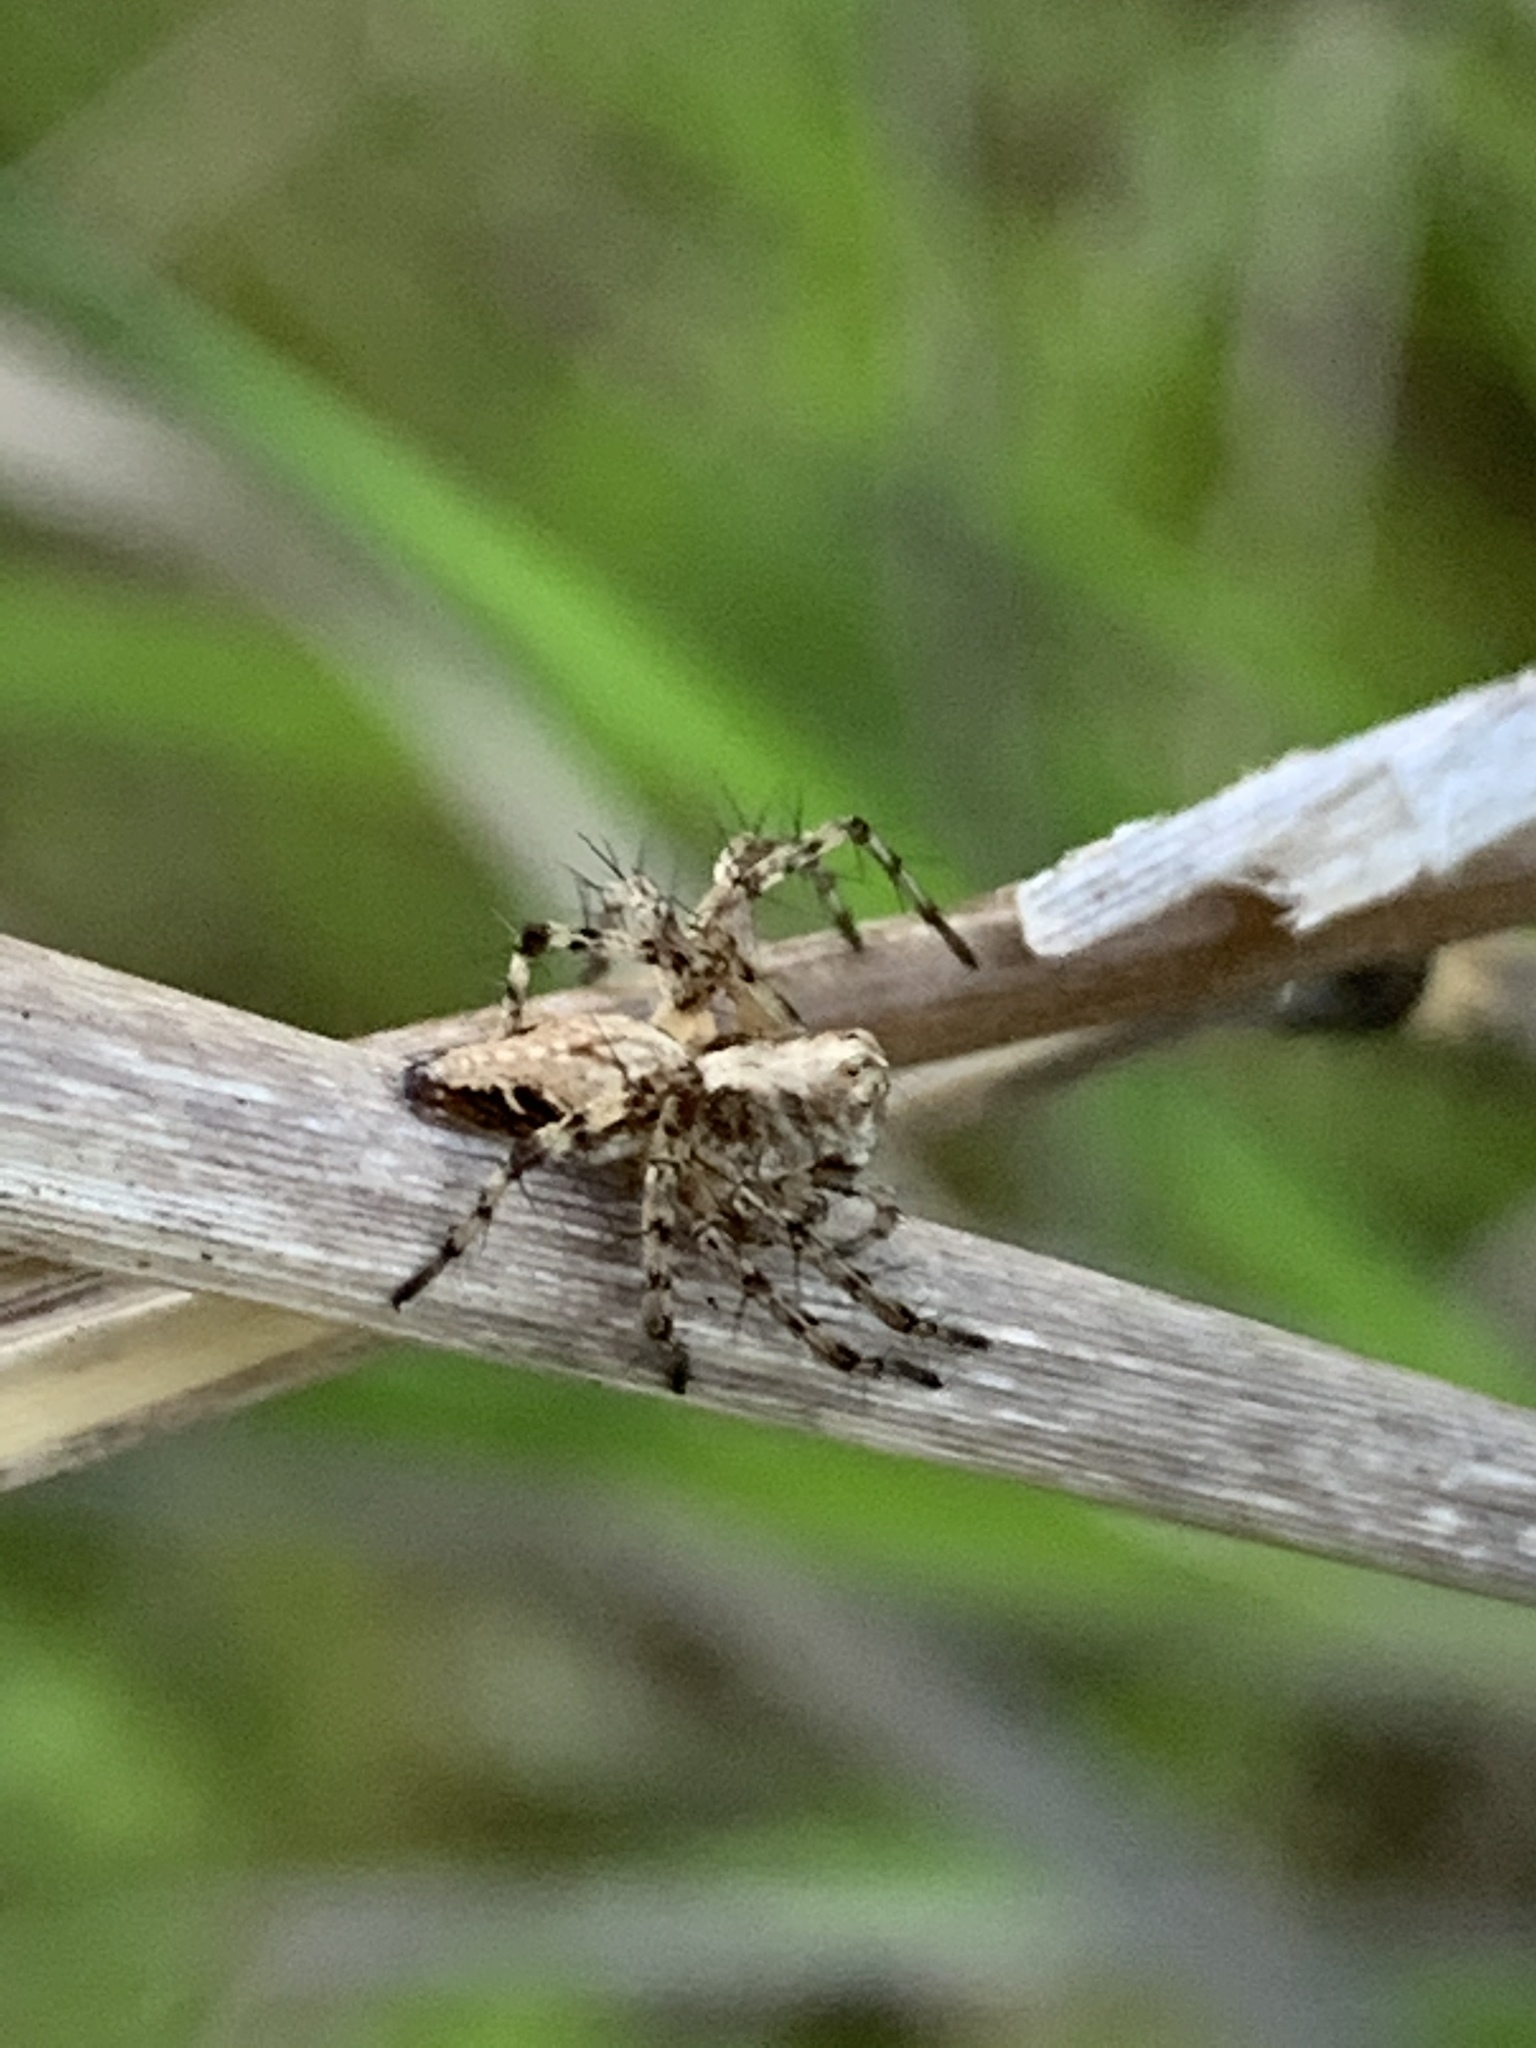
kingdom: Animalia
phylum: Arthropoda
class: Arachnida
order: Araneae
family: Oxyopidae
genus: Oxyopes
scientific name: Oxyopes scalaris
